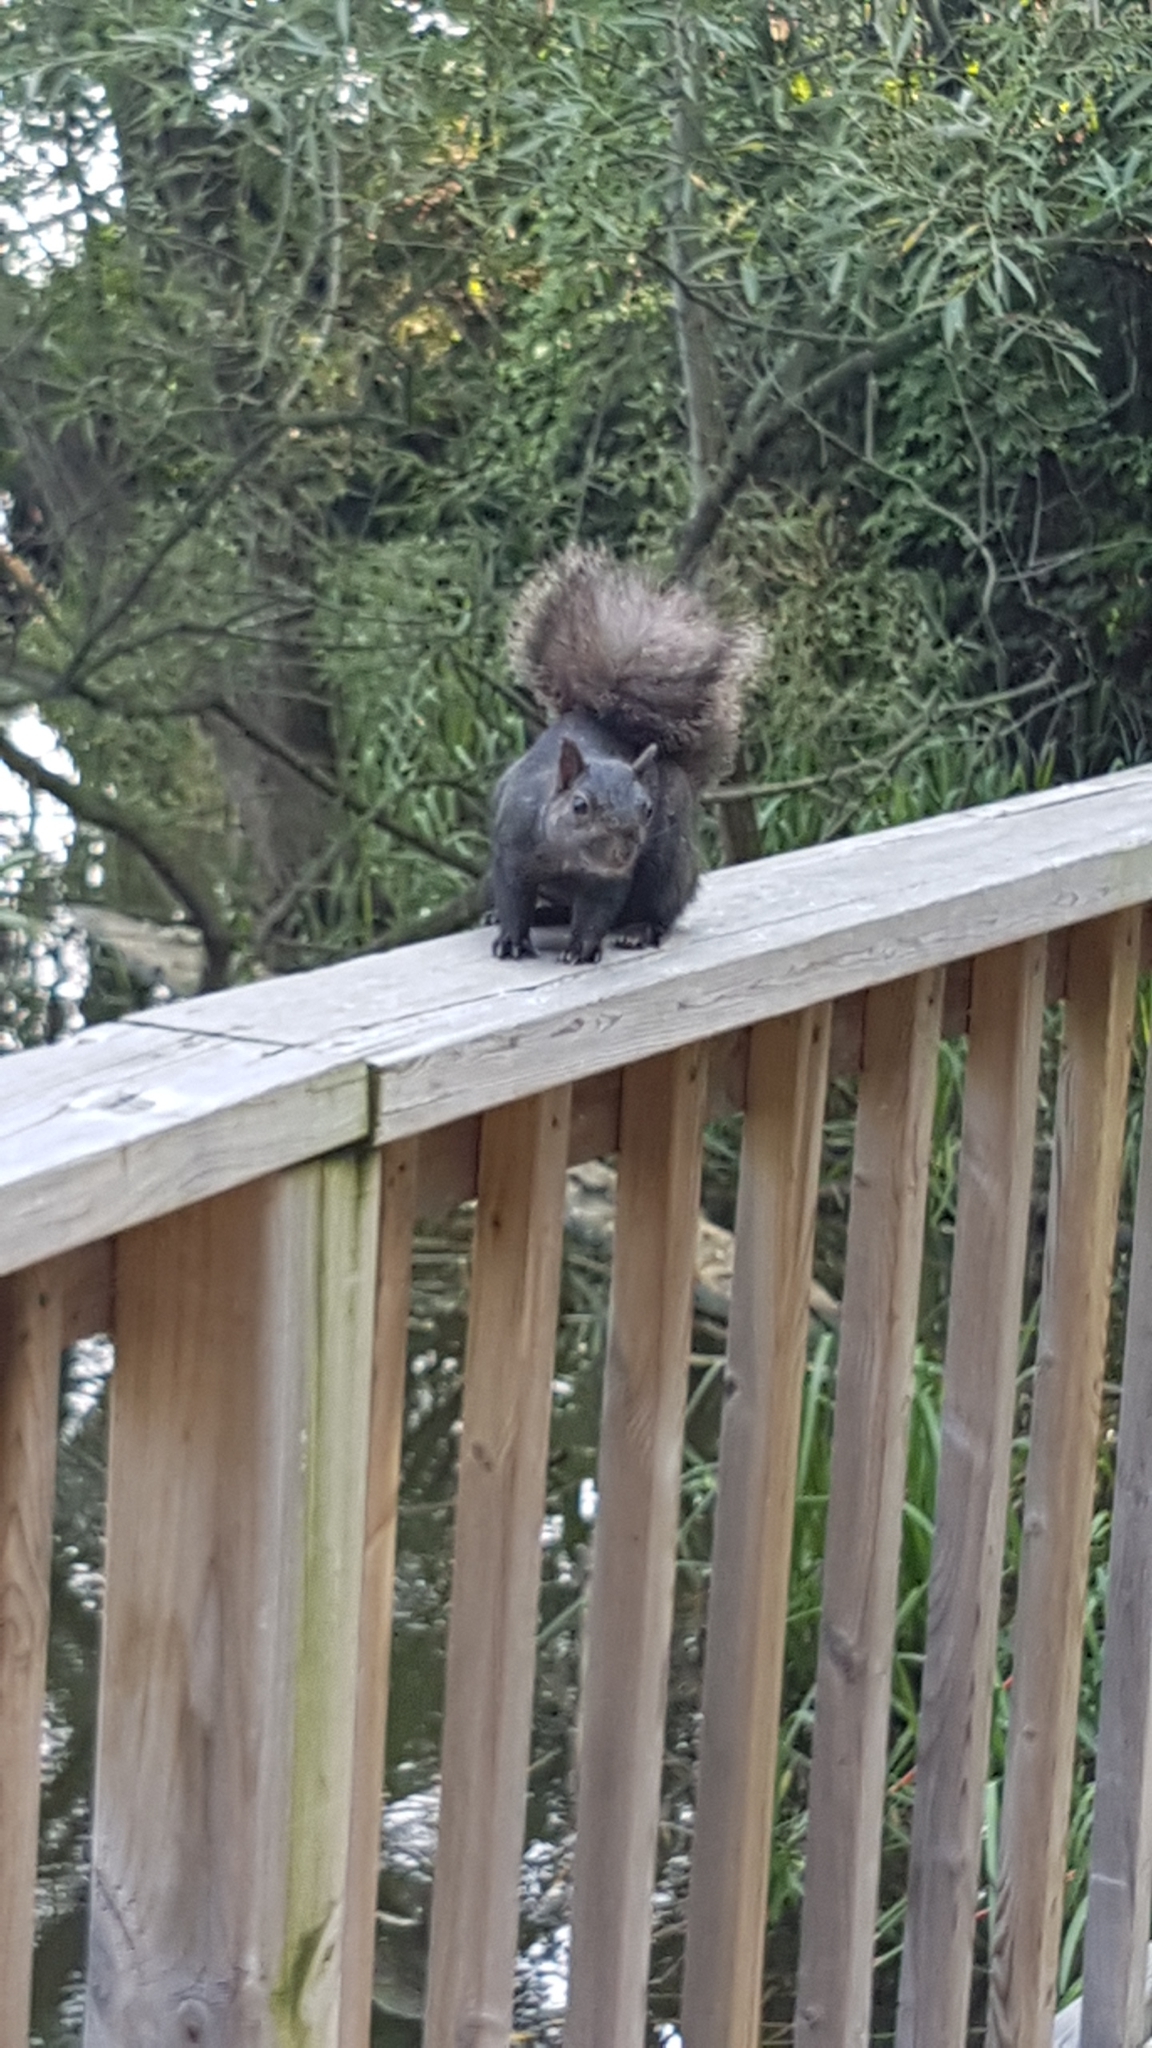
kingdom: Animalia
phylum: Chordata
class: Mammalia
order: Rodentia
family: Sciuridae
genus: Sciurus
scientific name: Sciurus carolinensis
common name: Eastern gray squirrel
